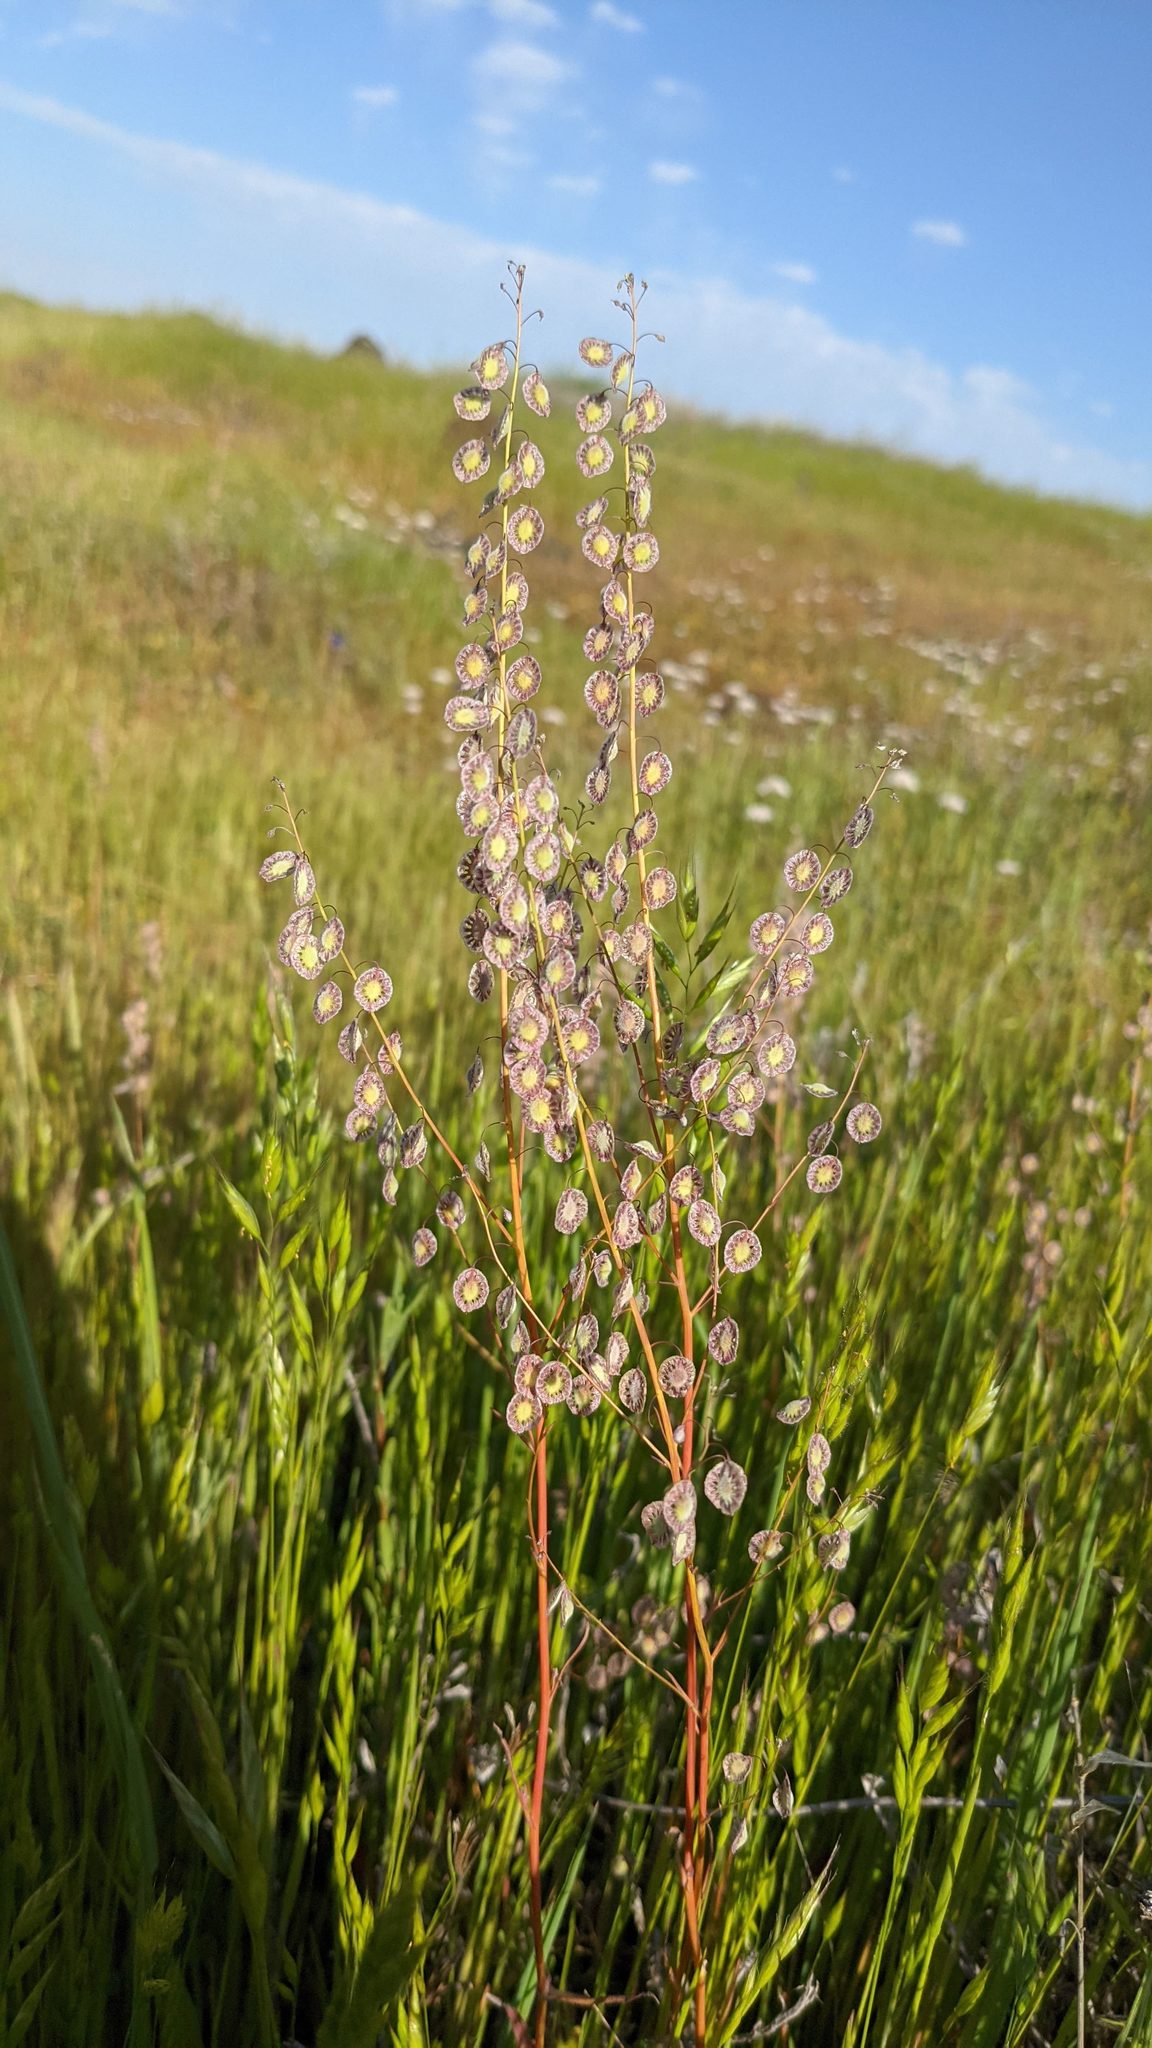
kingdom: Plantae
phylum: Tracheophyta
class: Magnoliopsida
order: Brassicales
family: Brassicaceae
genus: Thysanocarpus
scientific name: Thysanocarpus curvipes
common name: Sand fringepod
